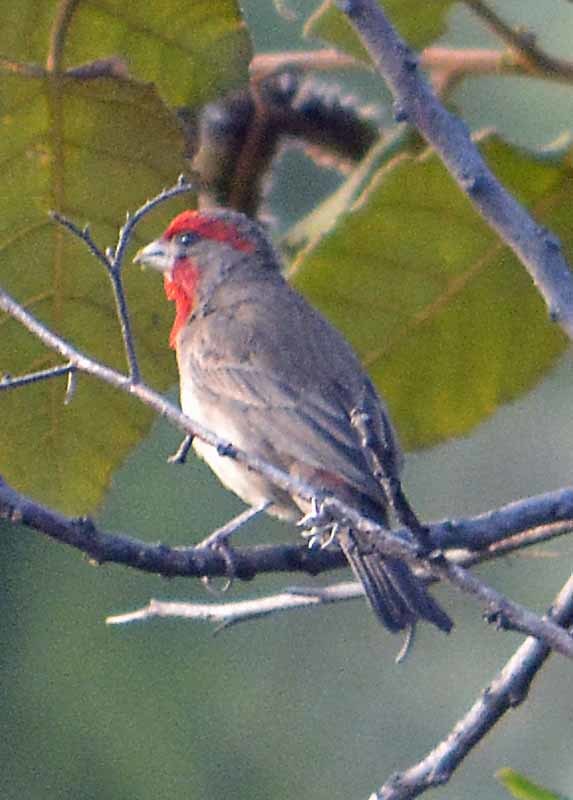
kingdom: Animalia
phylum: Chordata
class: Aves
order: Passeriformes
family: Fringillidae
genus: Haemorhous
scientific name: Haemorhous mexicanus
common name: House finch
